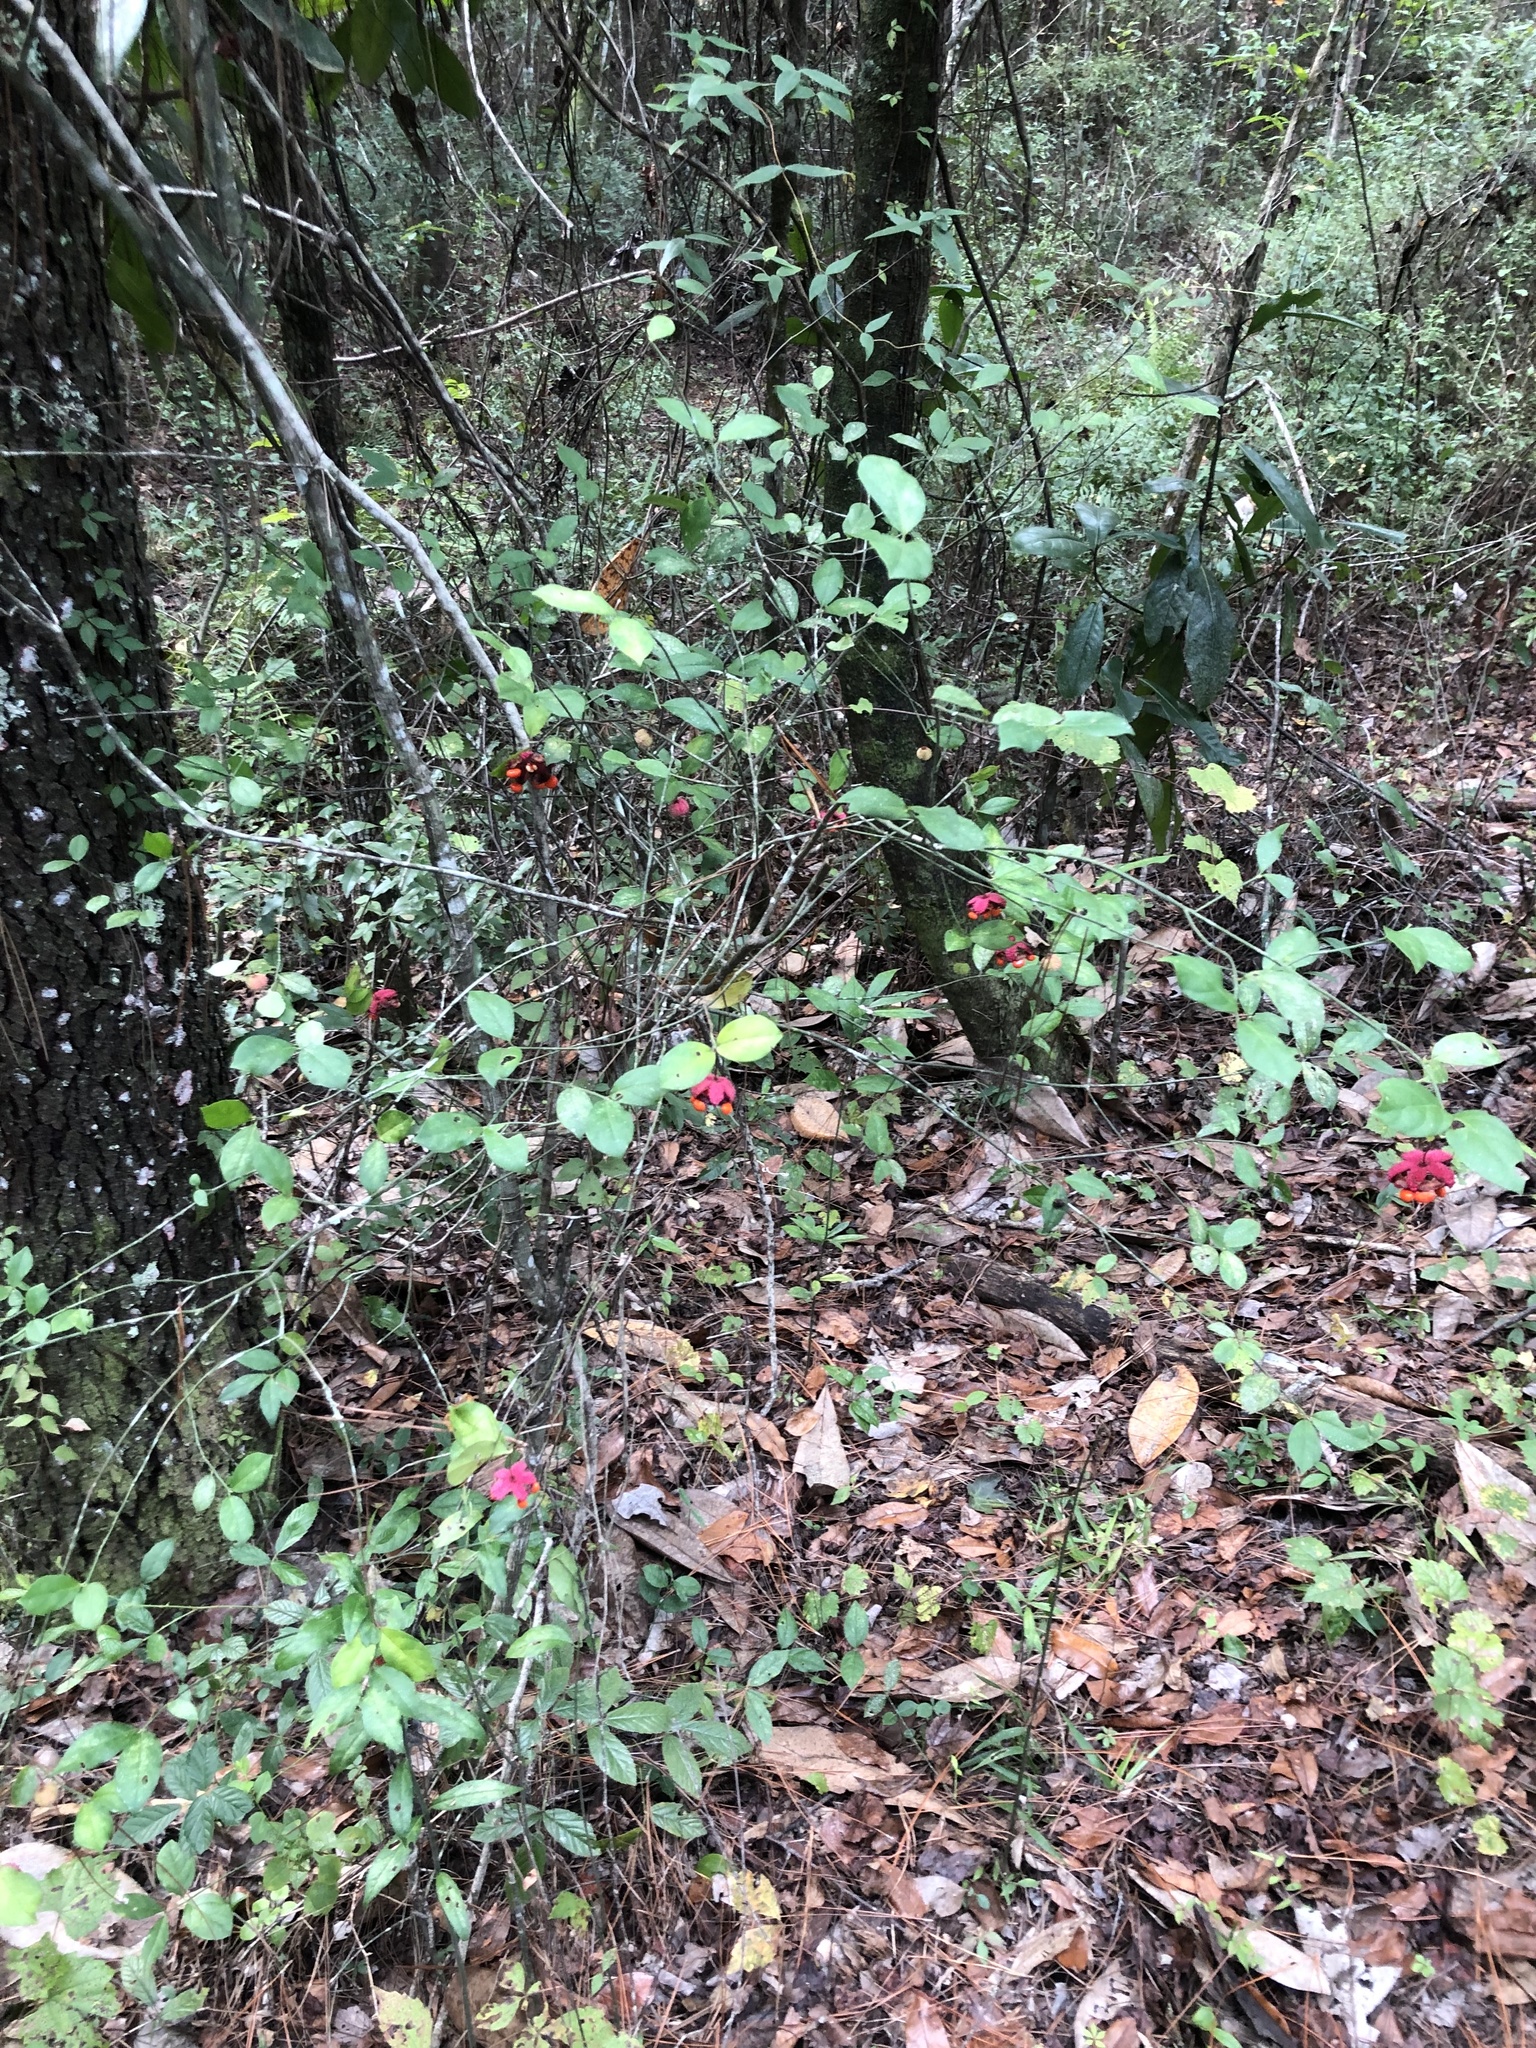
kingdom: Plantae
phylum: Tracheophyta
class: Magnoliopsida
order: Celastrales
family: Celastraceae
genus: Euonymus
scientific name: Euonymus americanus
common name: Bursting-heart
